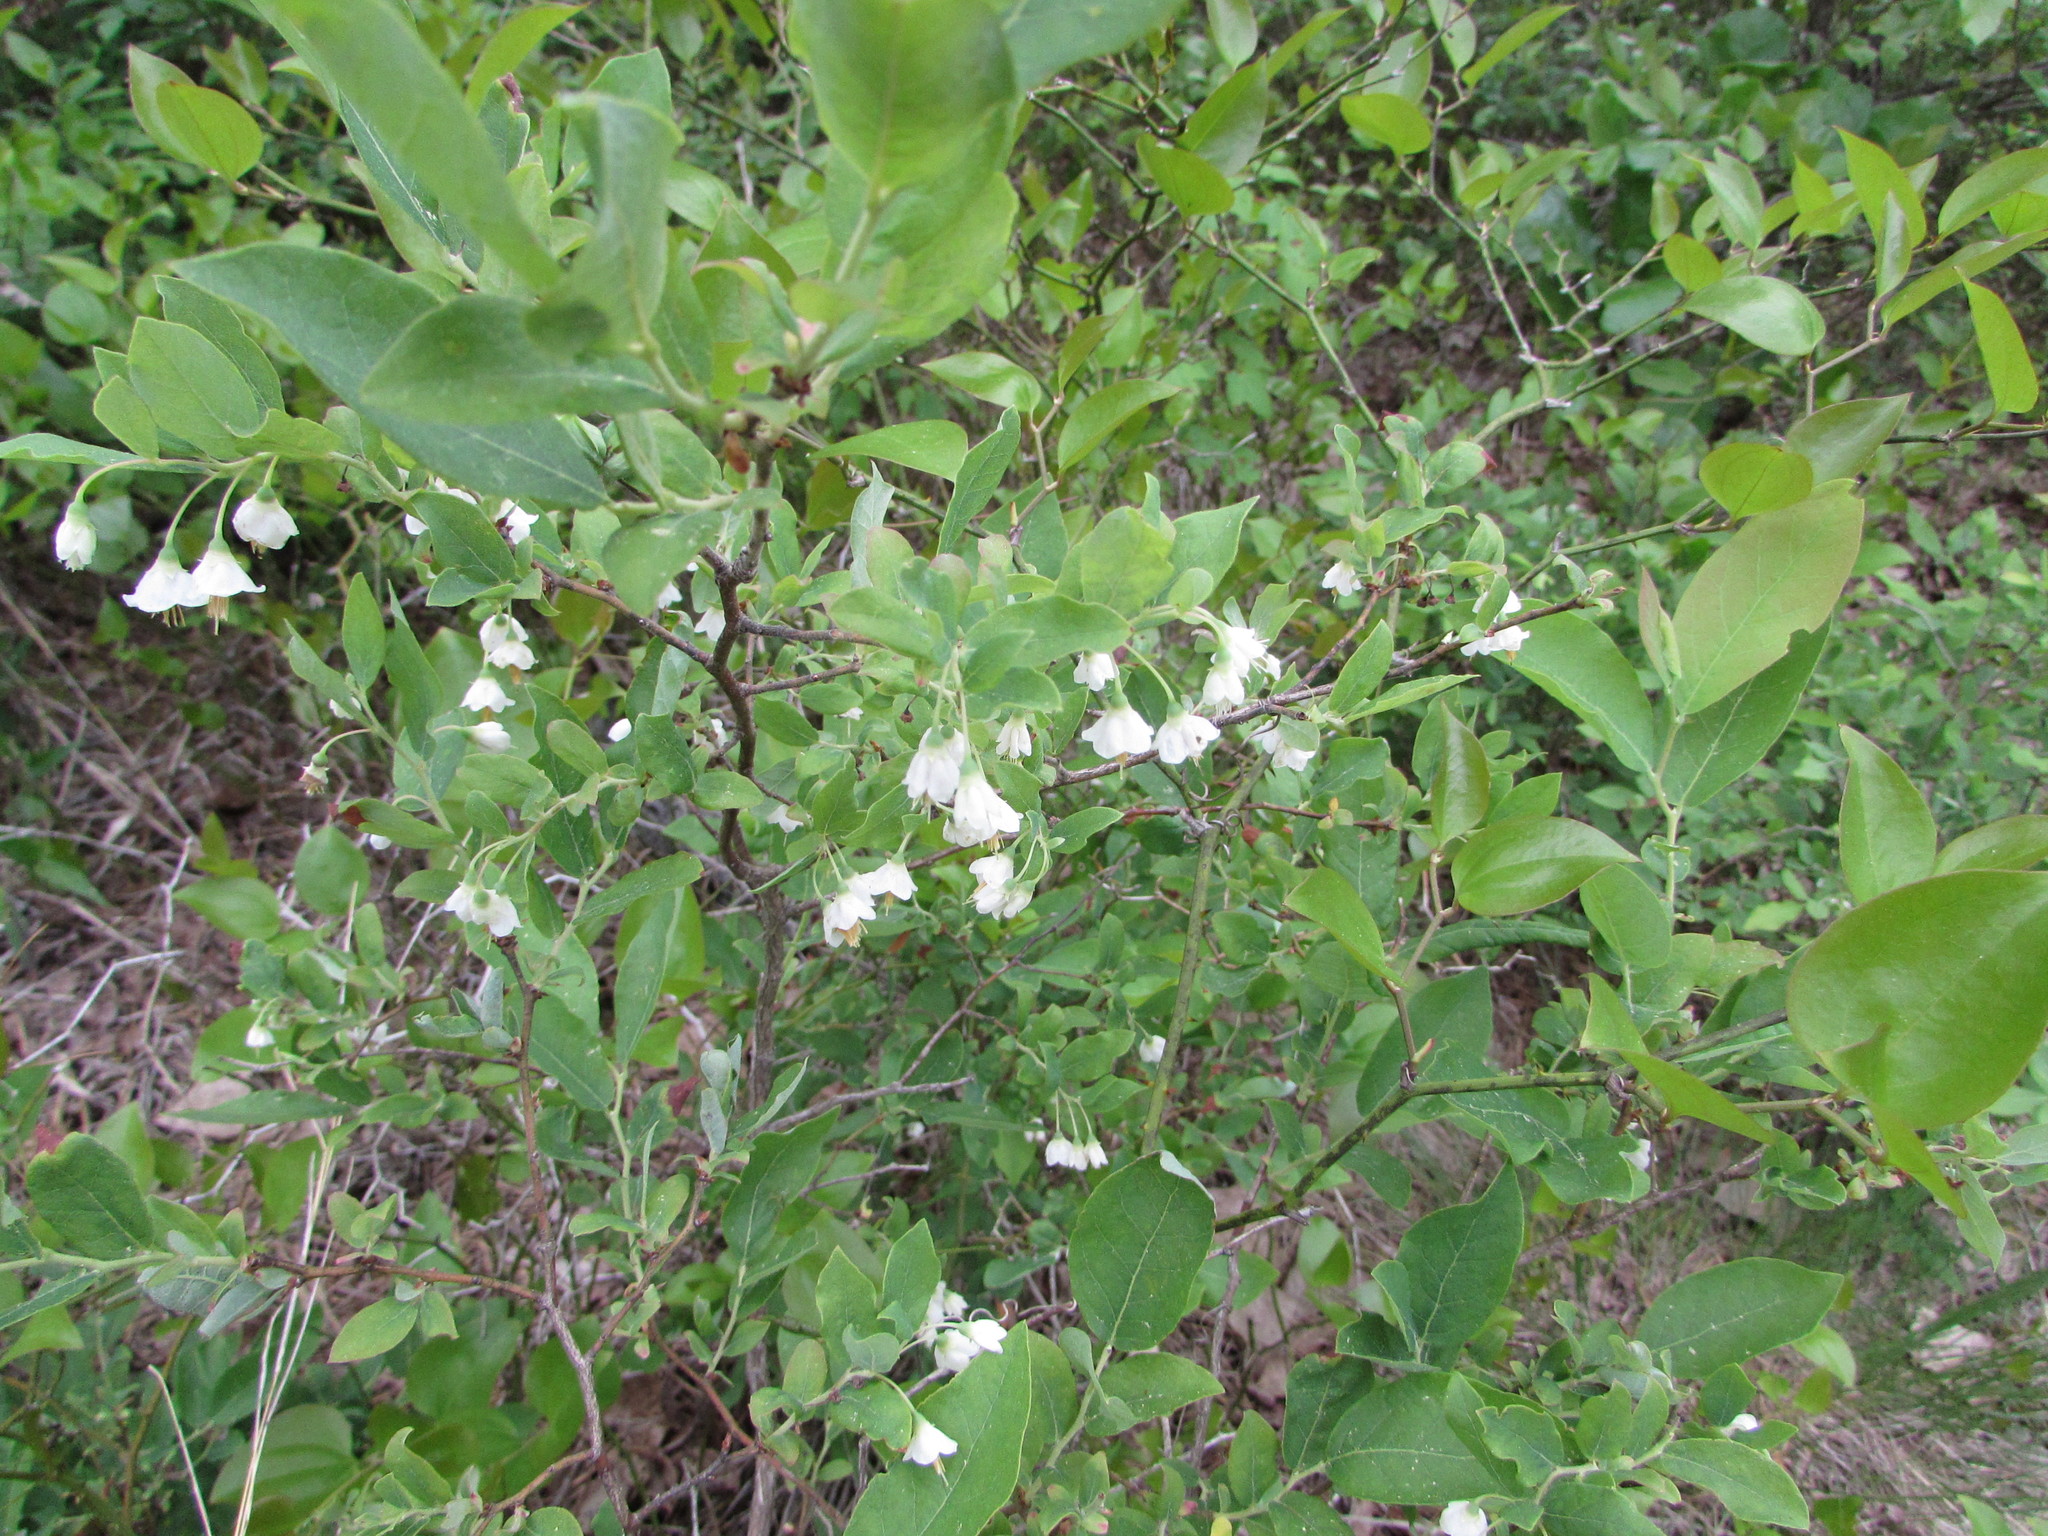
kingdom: Plantae
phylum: Tracheophyta
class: Magnoliopsida
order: Ericales
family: Ericaceae
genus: Vaccinium
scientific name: Vaccinium stamineum
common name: Deerberry
